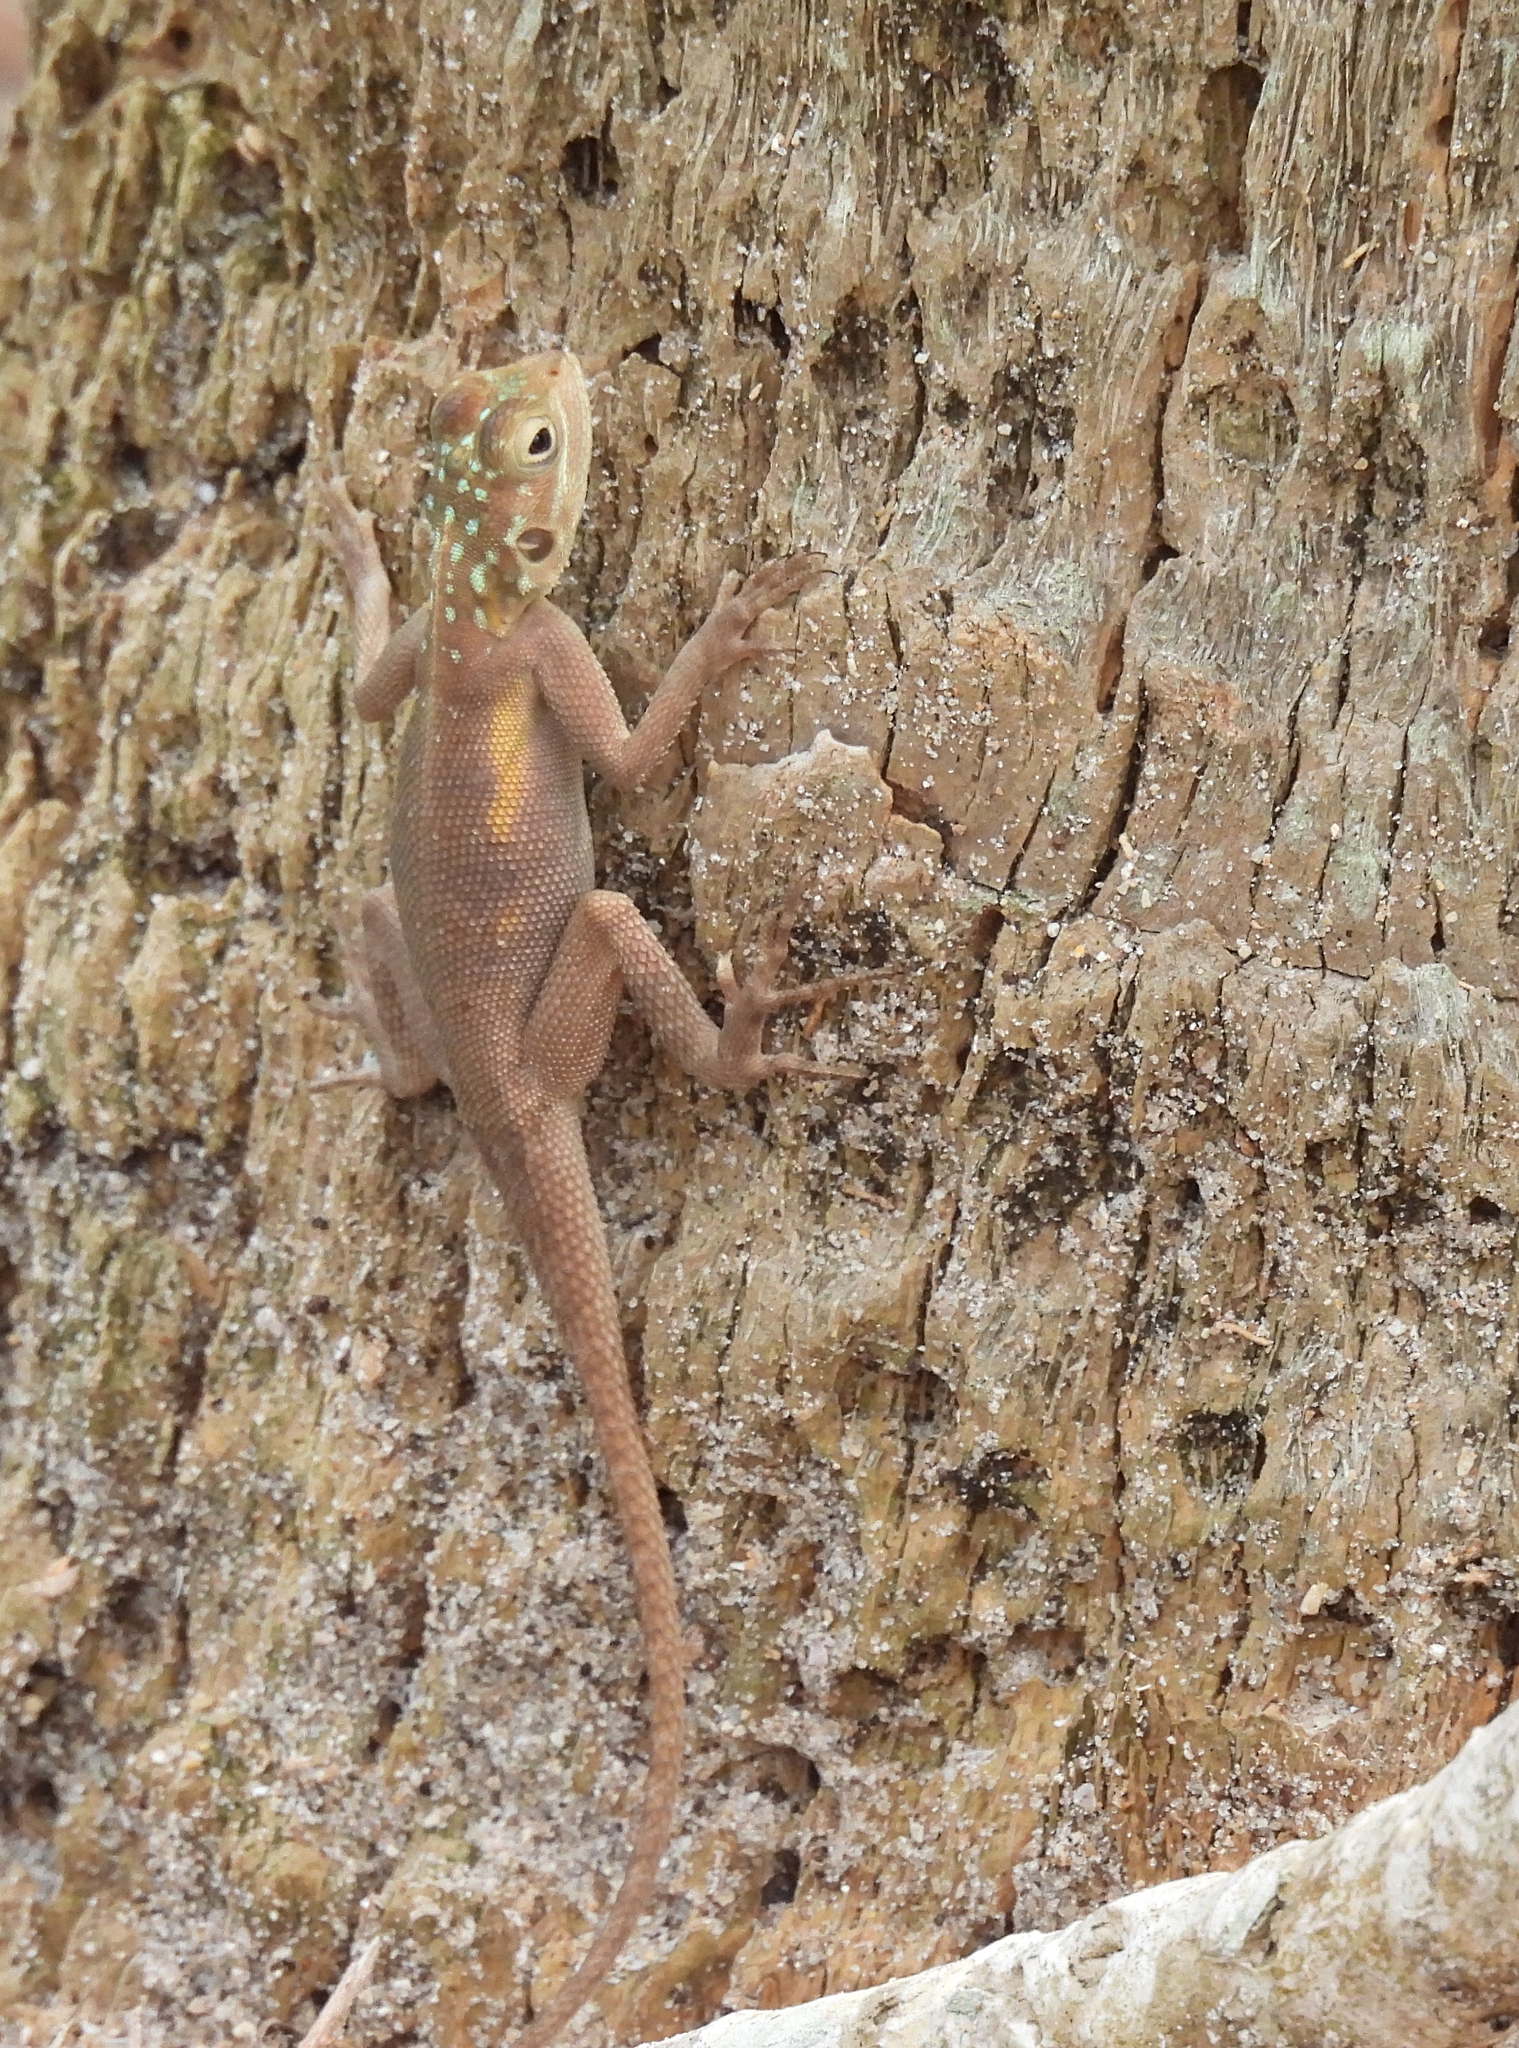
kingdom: Animalia
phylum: Chordata
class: Squamata
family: Agamidae
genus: Agama
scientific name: Agama picticauda
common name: Red-headed agama
